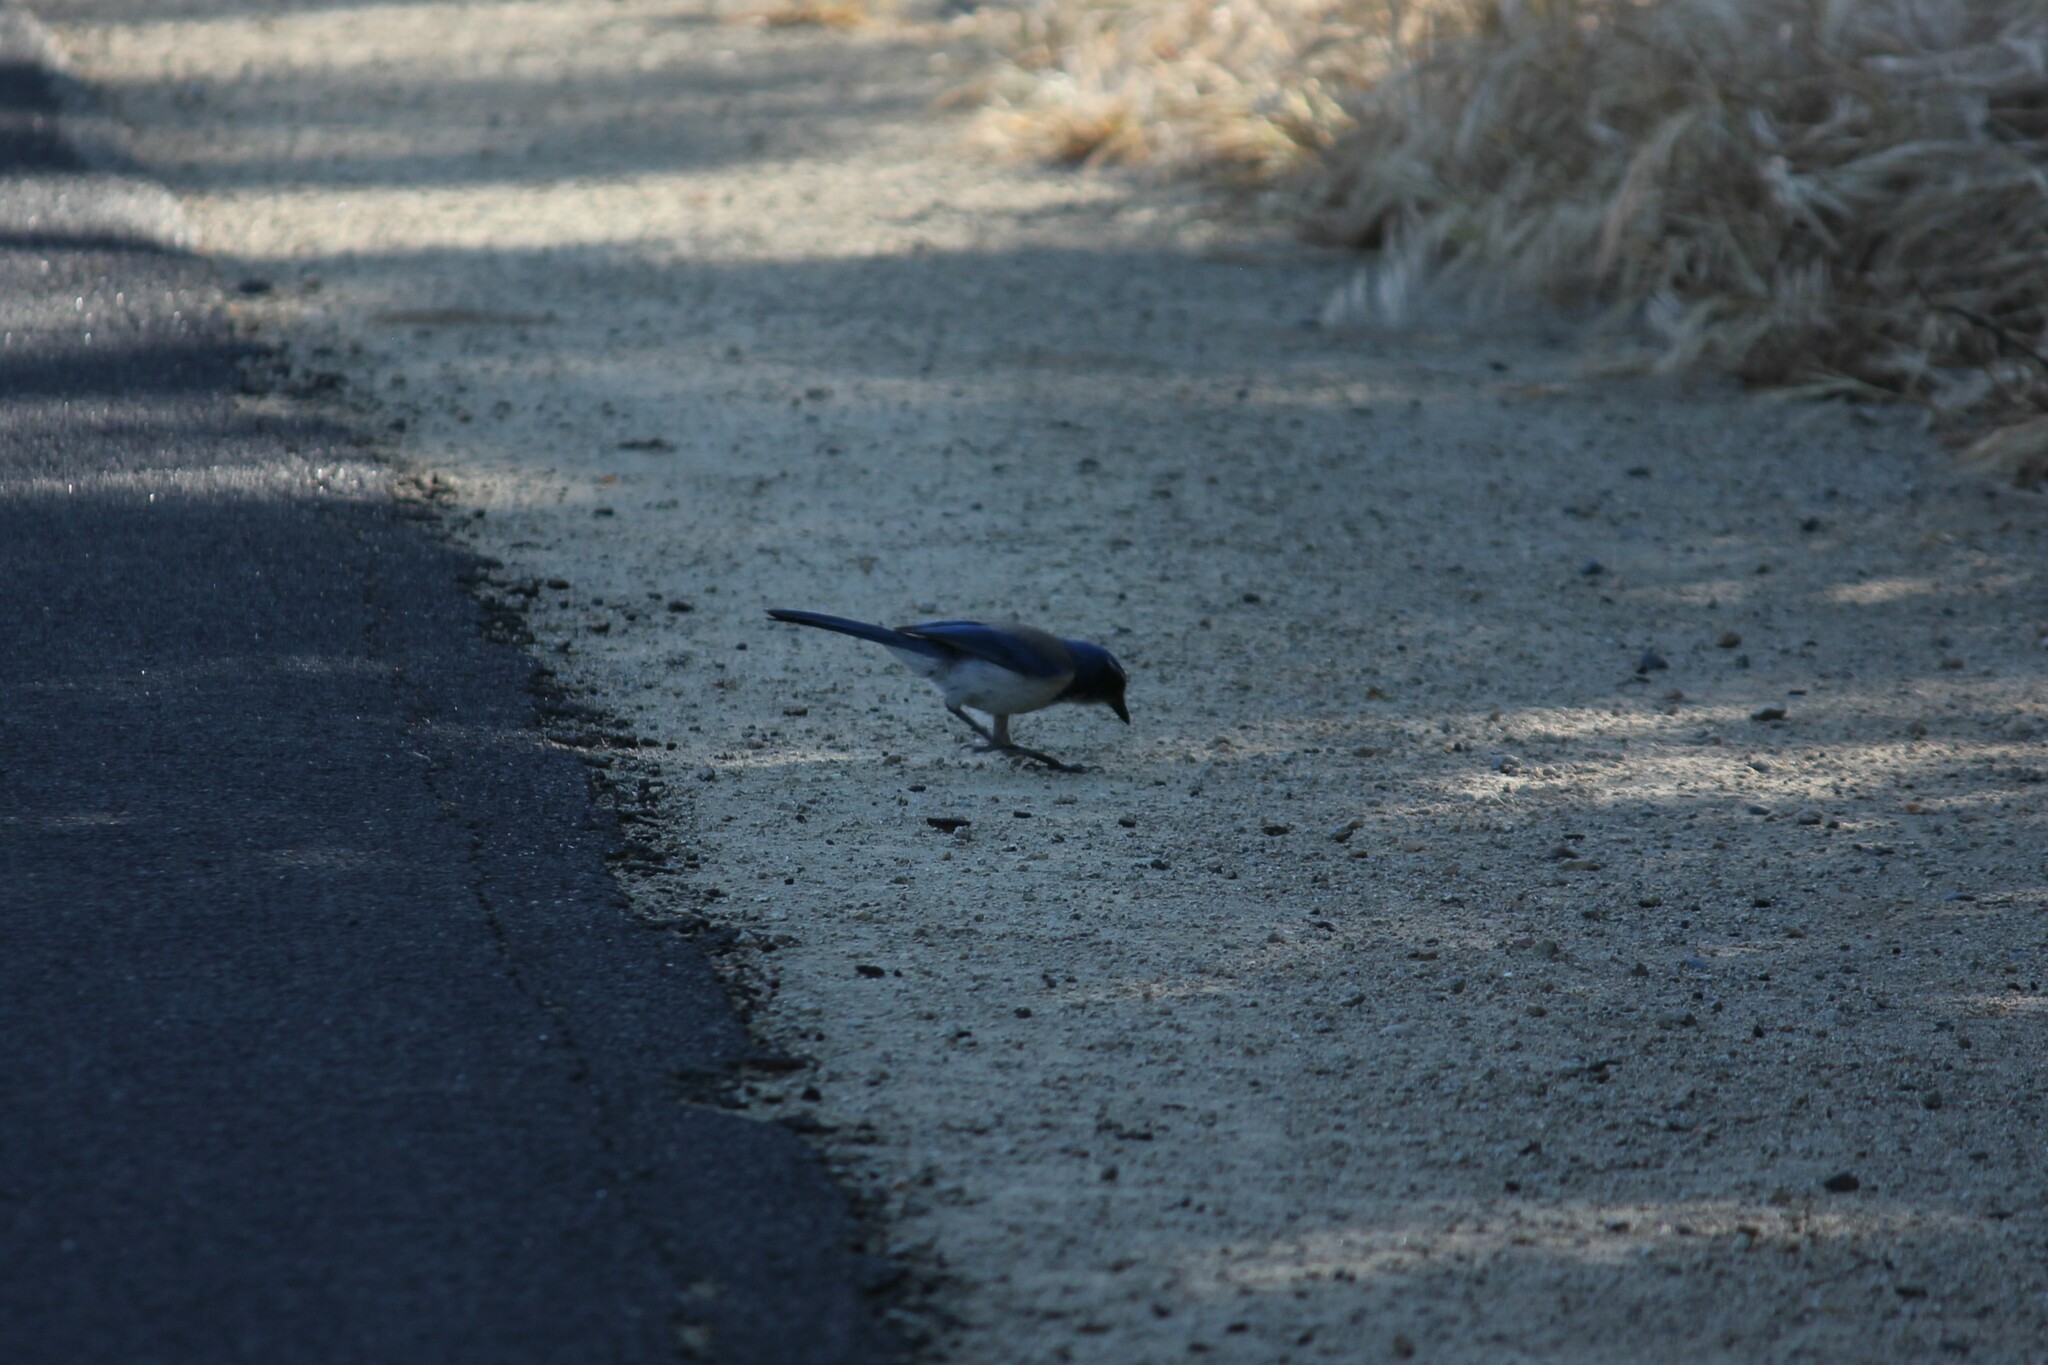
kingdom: Animalia
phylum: Chordata
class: Aves
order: Passeriformes
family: Corvidae
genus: Aphelocoma
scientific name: Aphelocoma californica
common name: California scrub-jay
